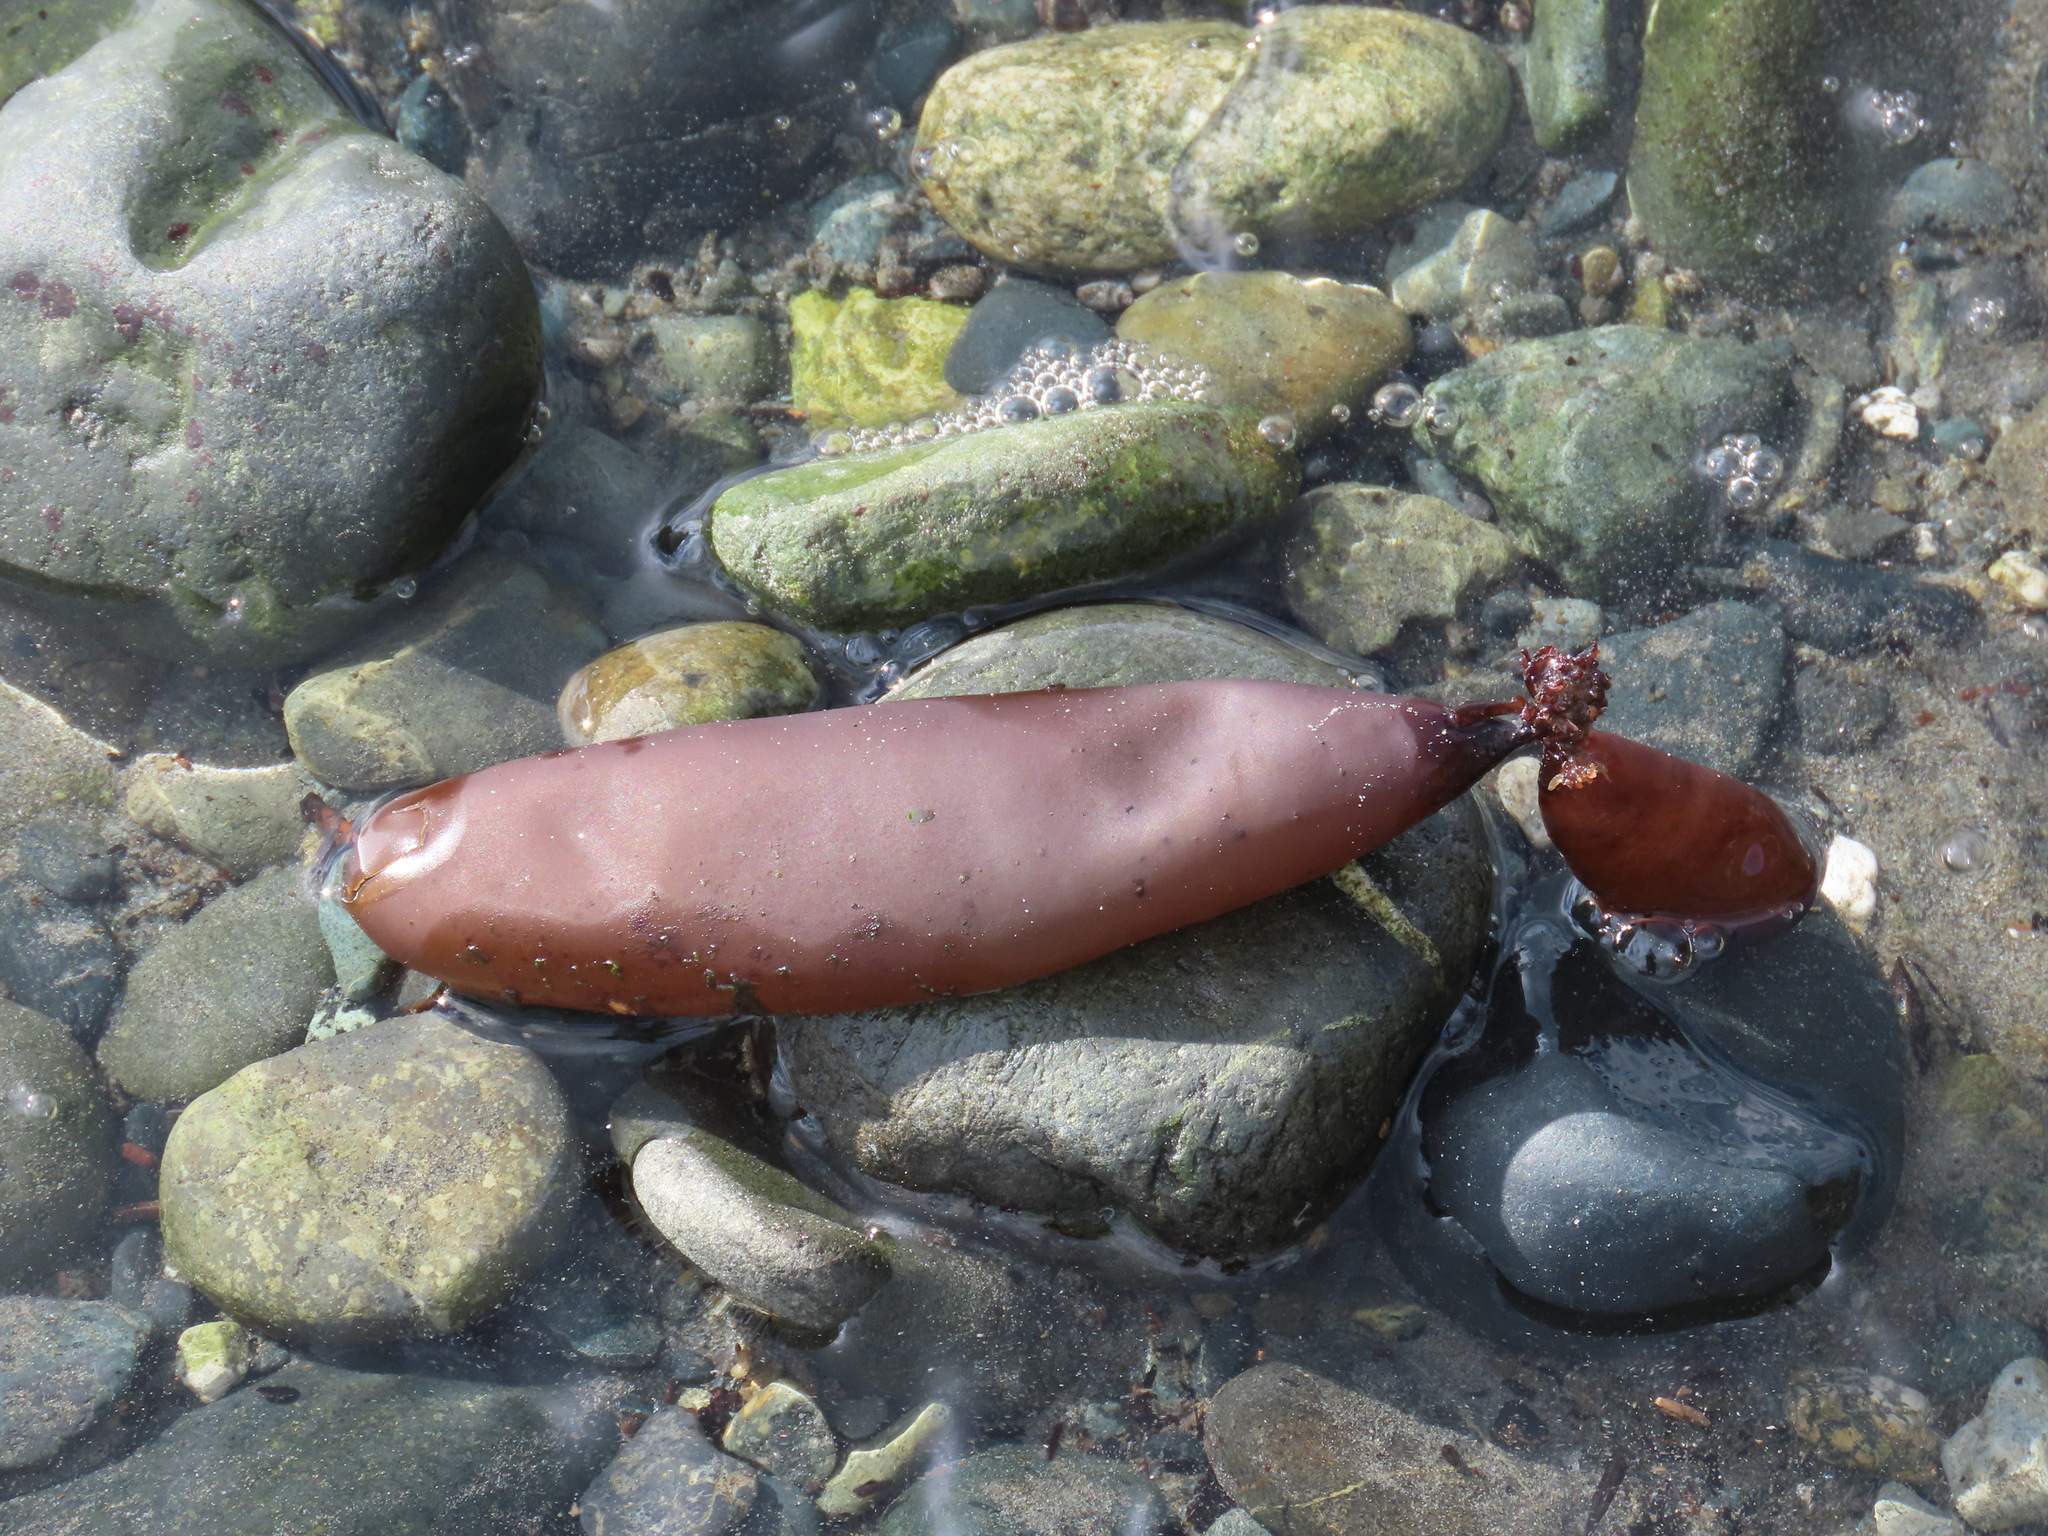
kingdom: Plantae
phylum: Rhodophyta
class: Florideophyceae
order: Palmariales
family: Palmariaceae
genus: Halosaccion
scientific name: Halosaccion glandiforme
